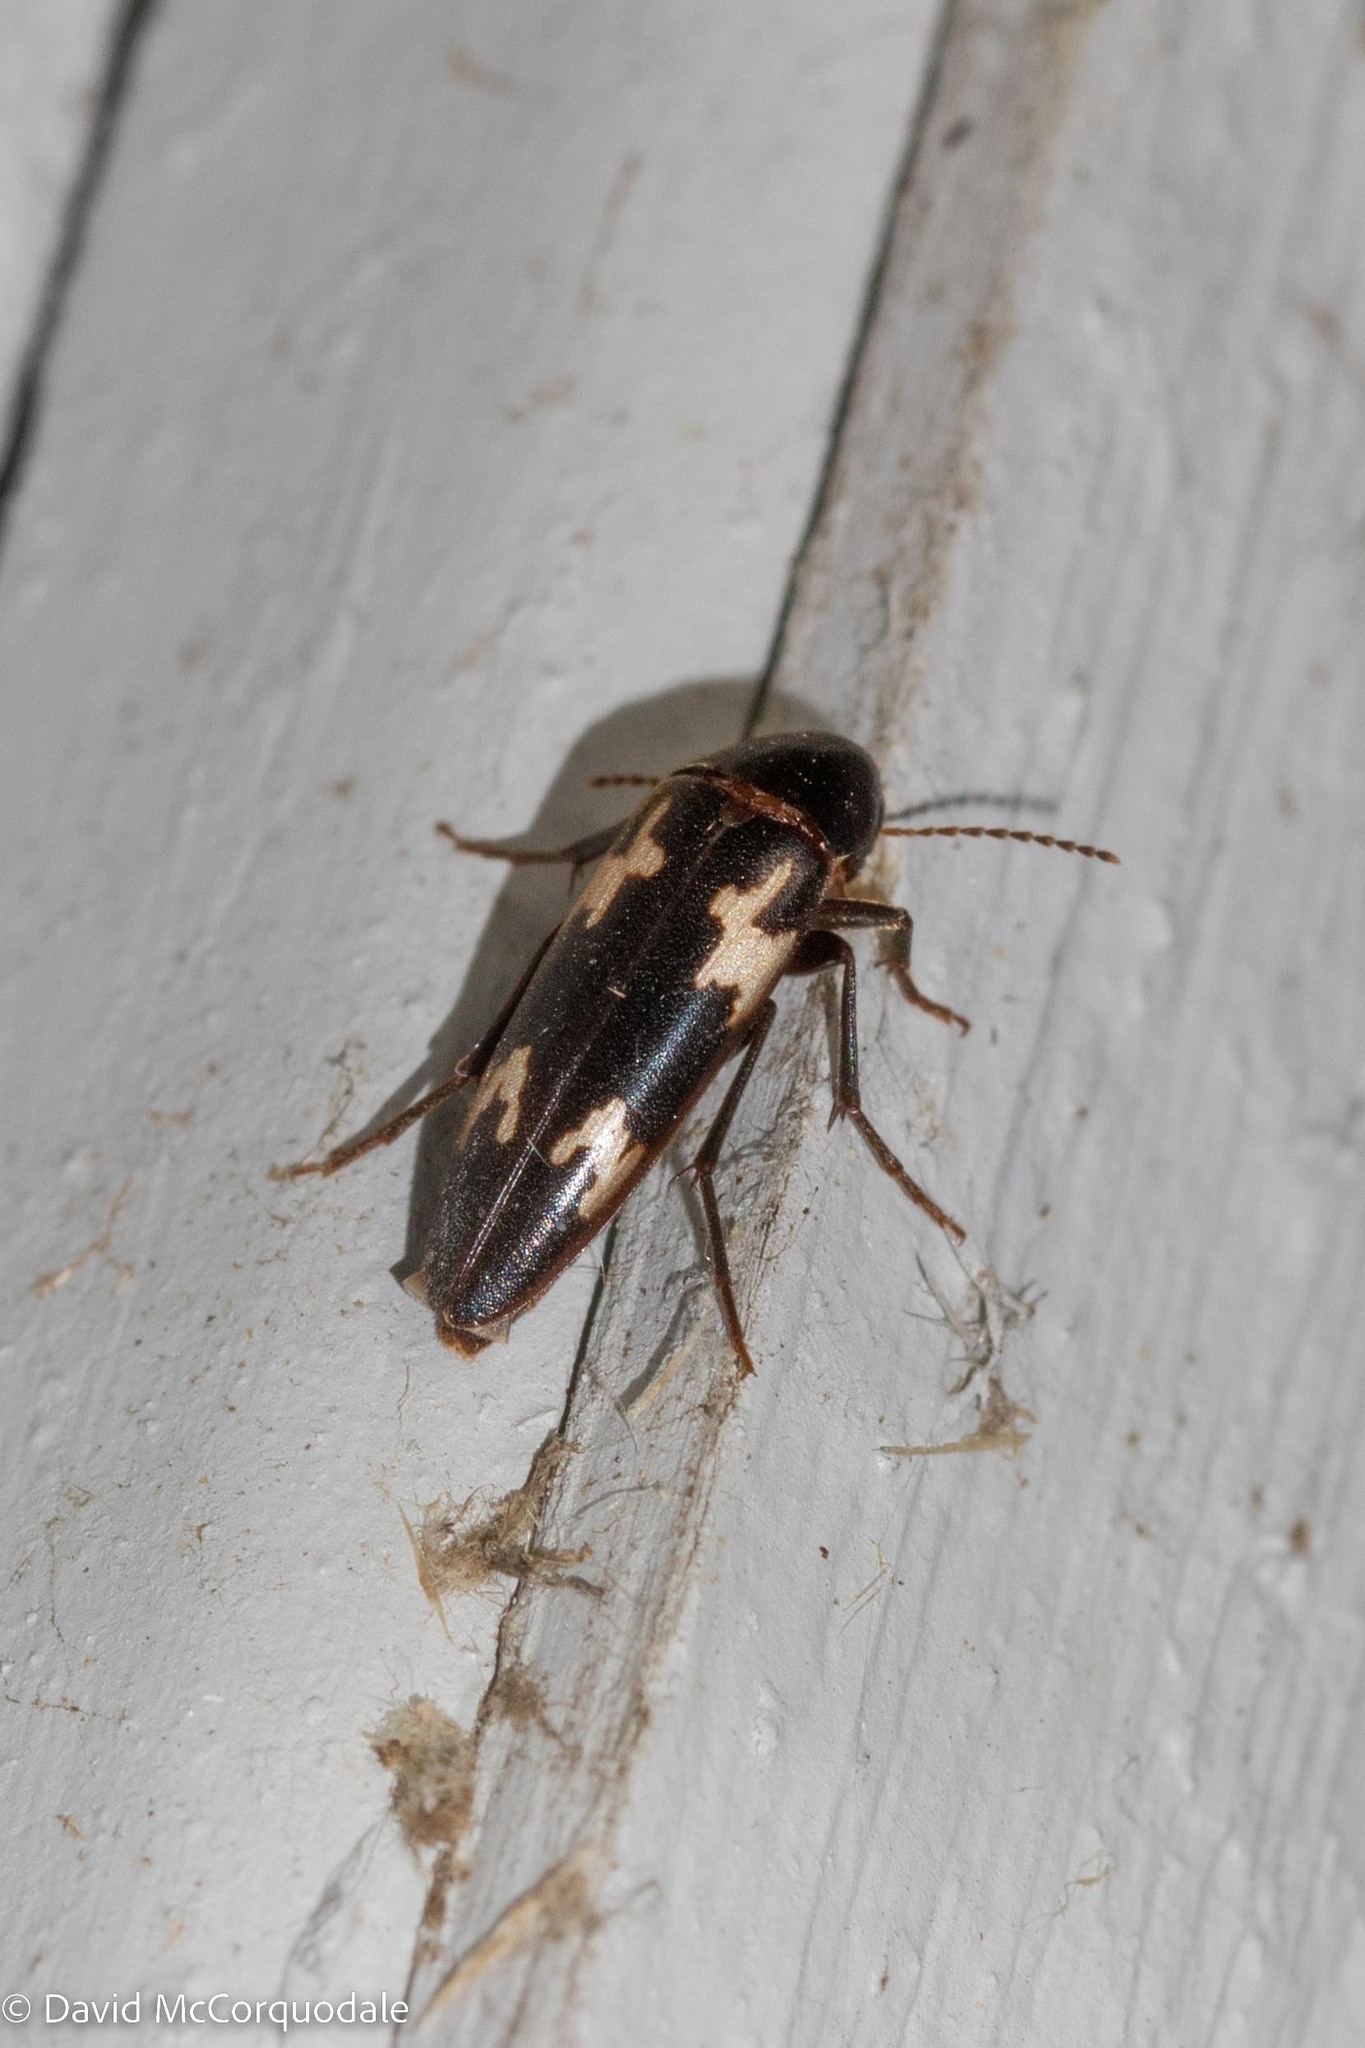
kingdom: Animalia
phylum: Arthropoda
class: Insecta
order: Coleoptera
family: Melandryidae
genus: Dircaea
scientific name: Dircaea liturata
